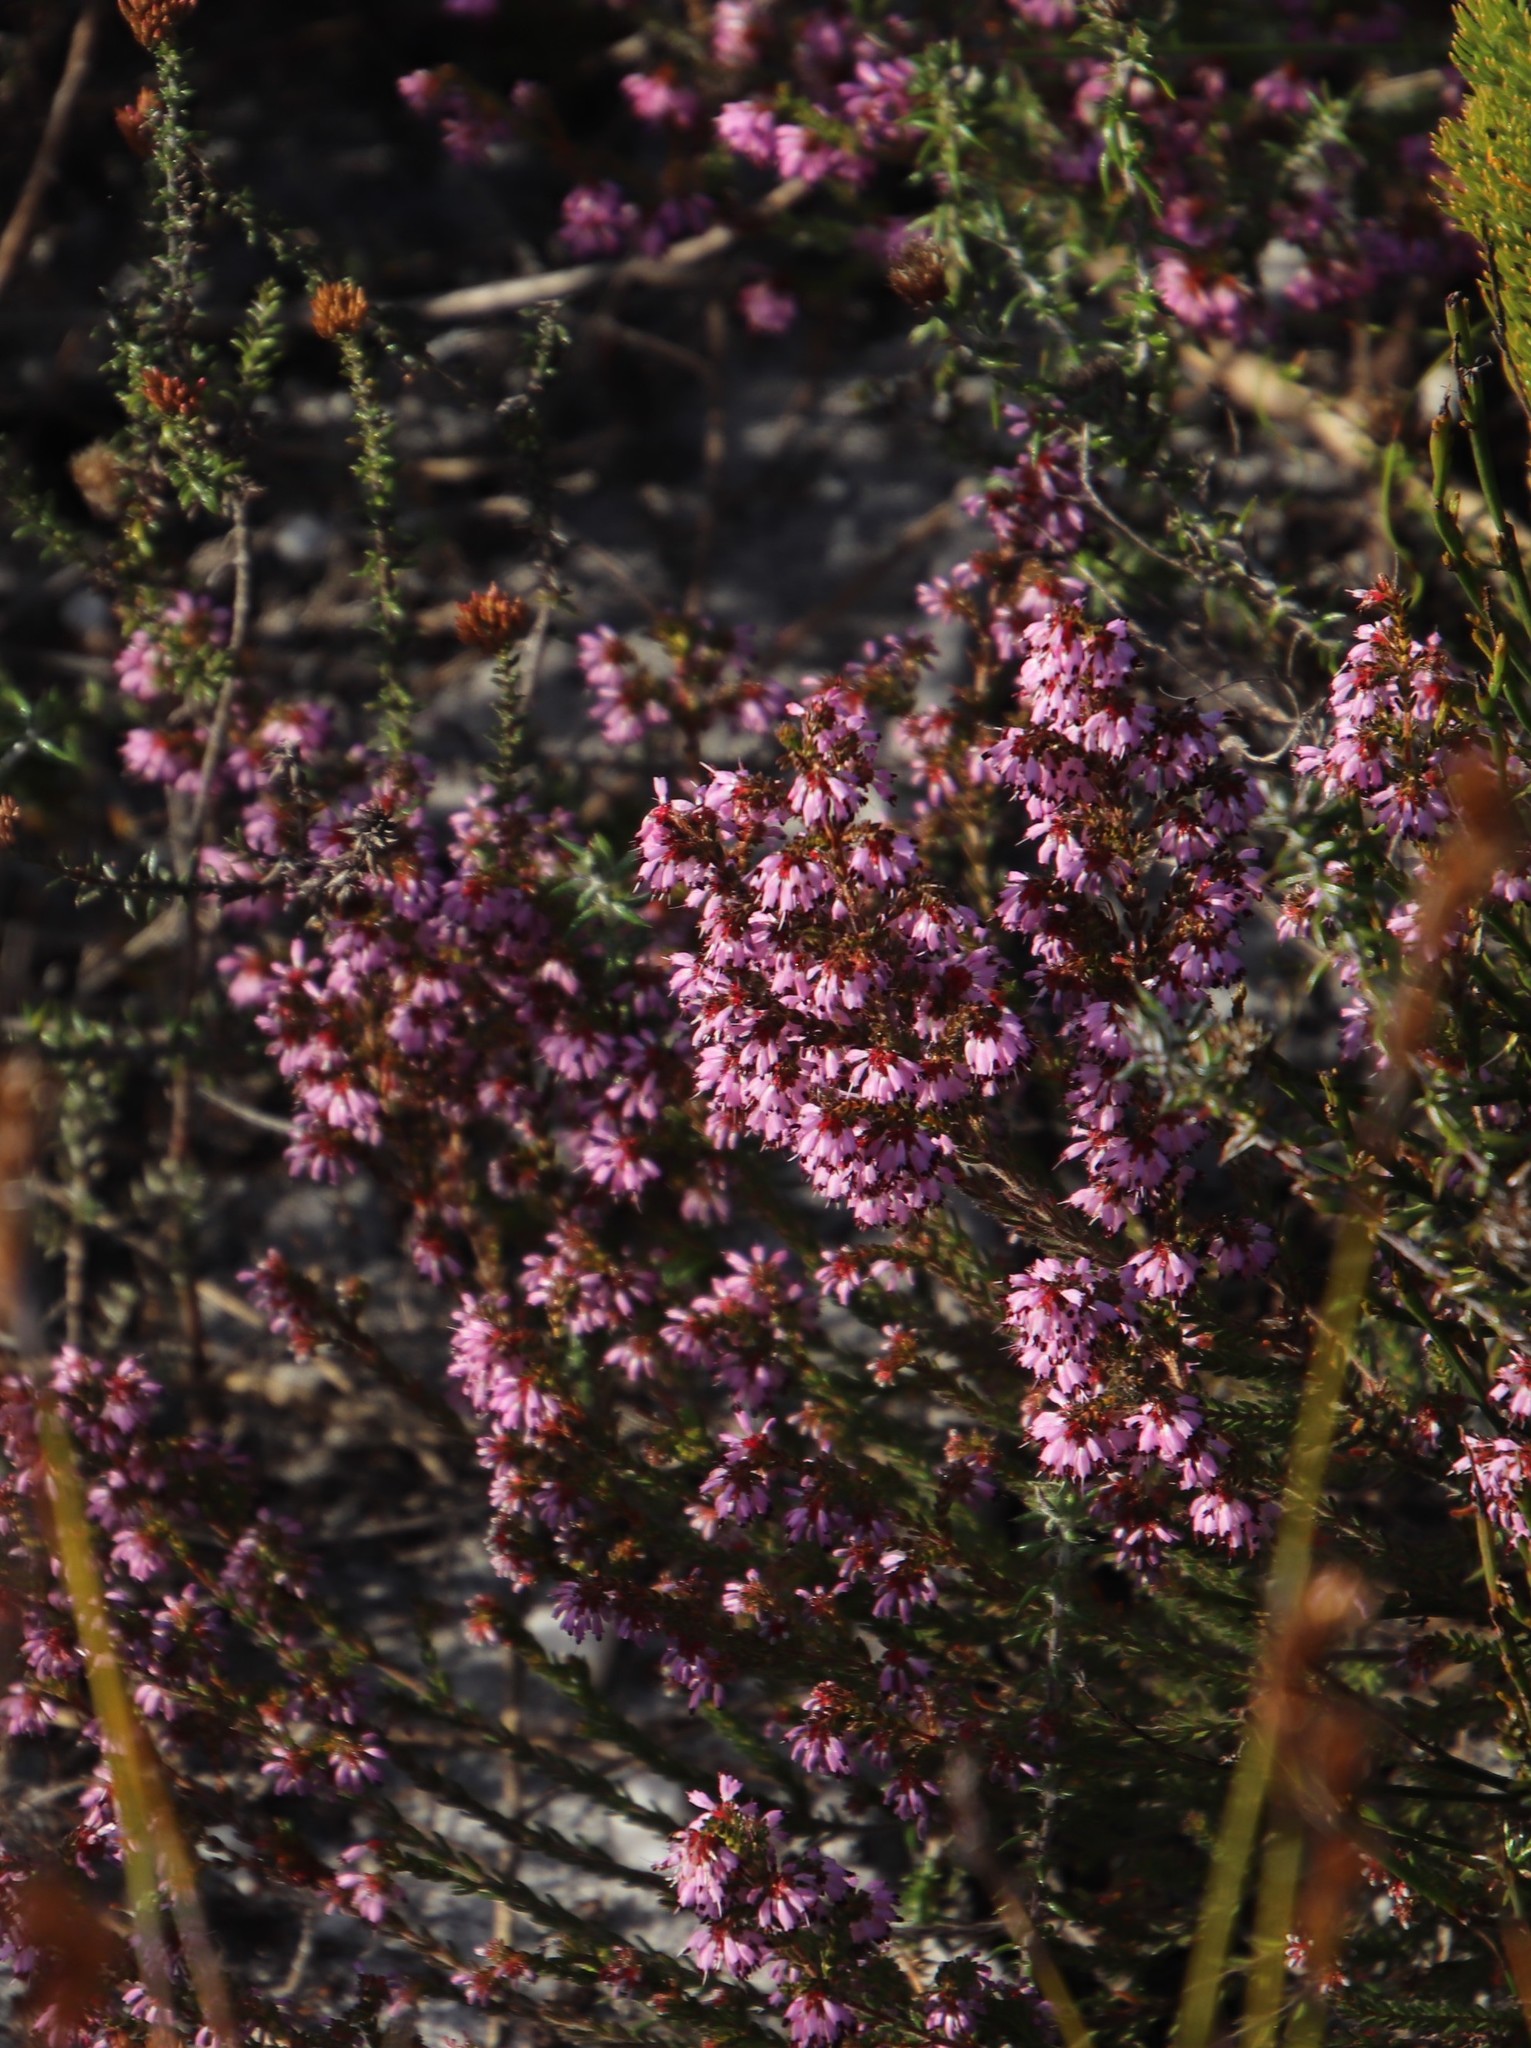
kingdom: Plantae
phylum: Tracheophyta
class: Magnoliopsida
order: Ericales
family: Ericaceae
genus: Erica
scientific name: Erica ericoides
